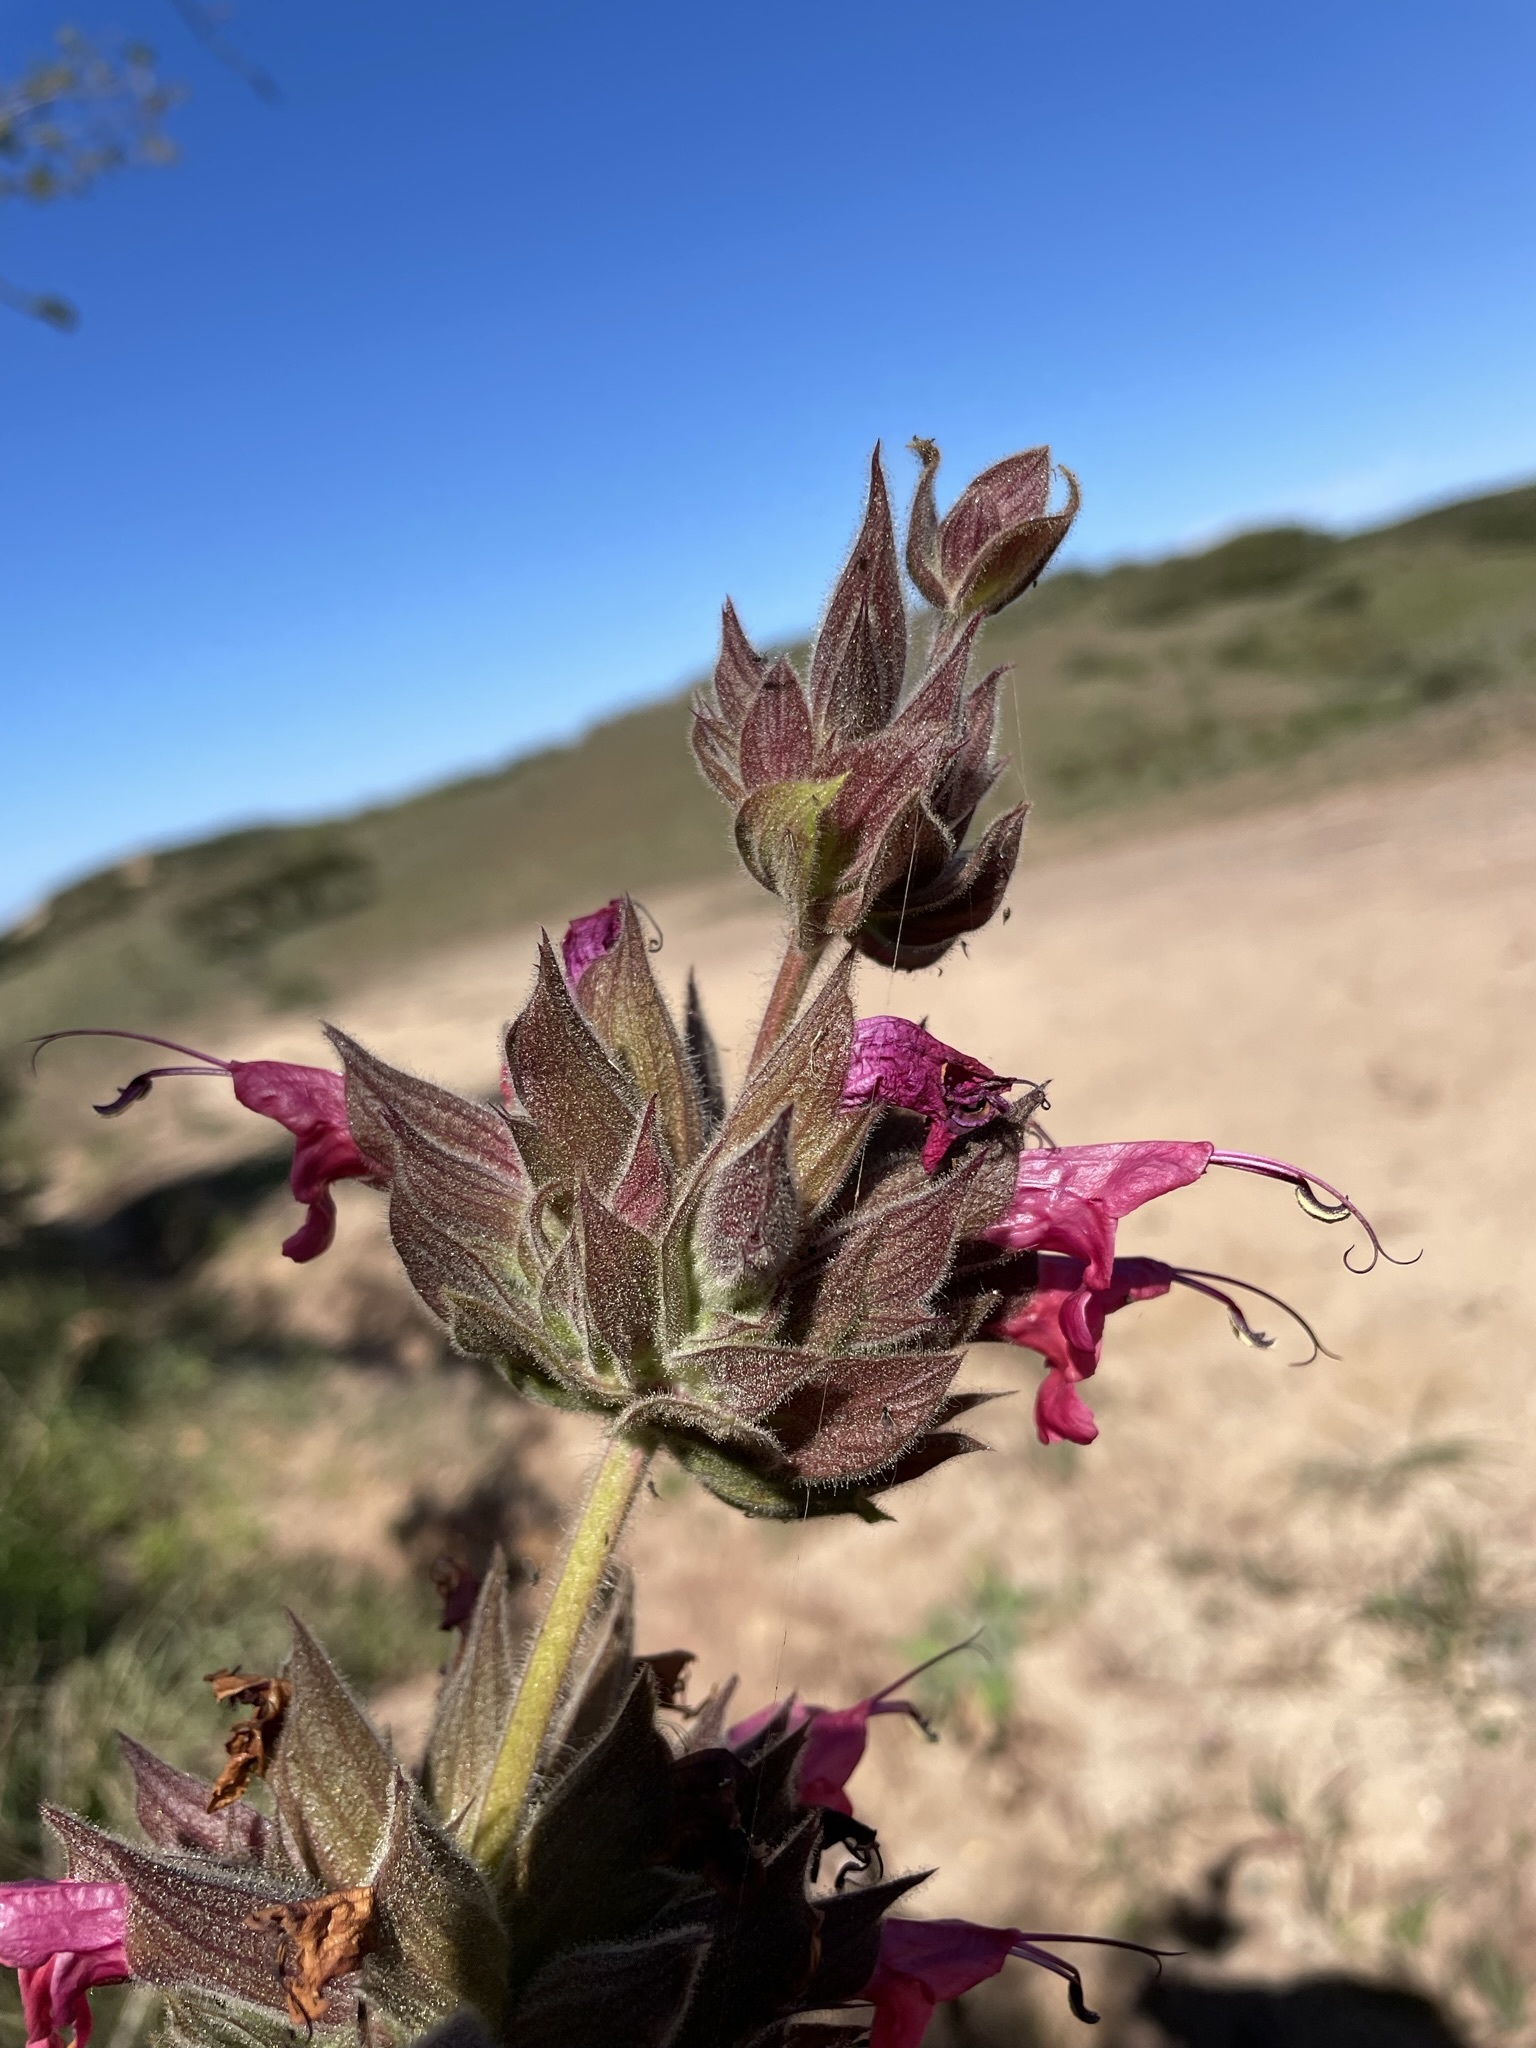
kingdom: Plantae
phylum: Tracheophyta
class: Magnoliopsida
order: Lamiales
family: Lamiaceae
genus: Salvia
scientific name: Salvia spathacea
